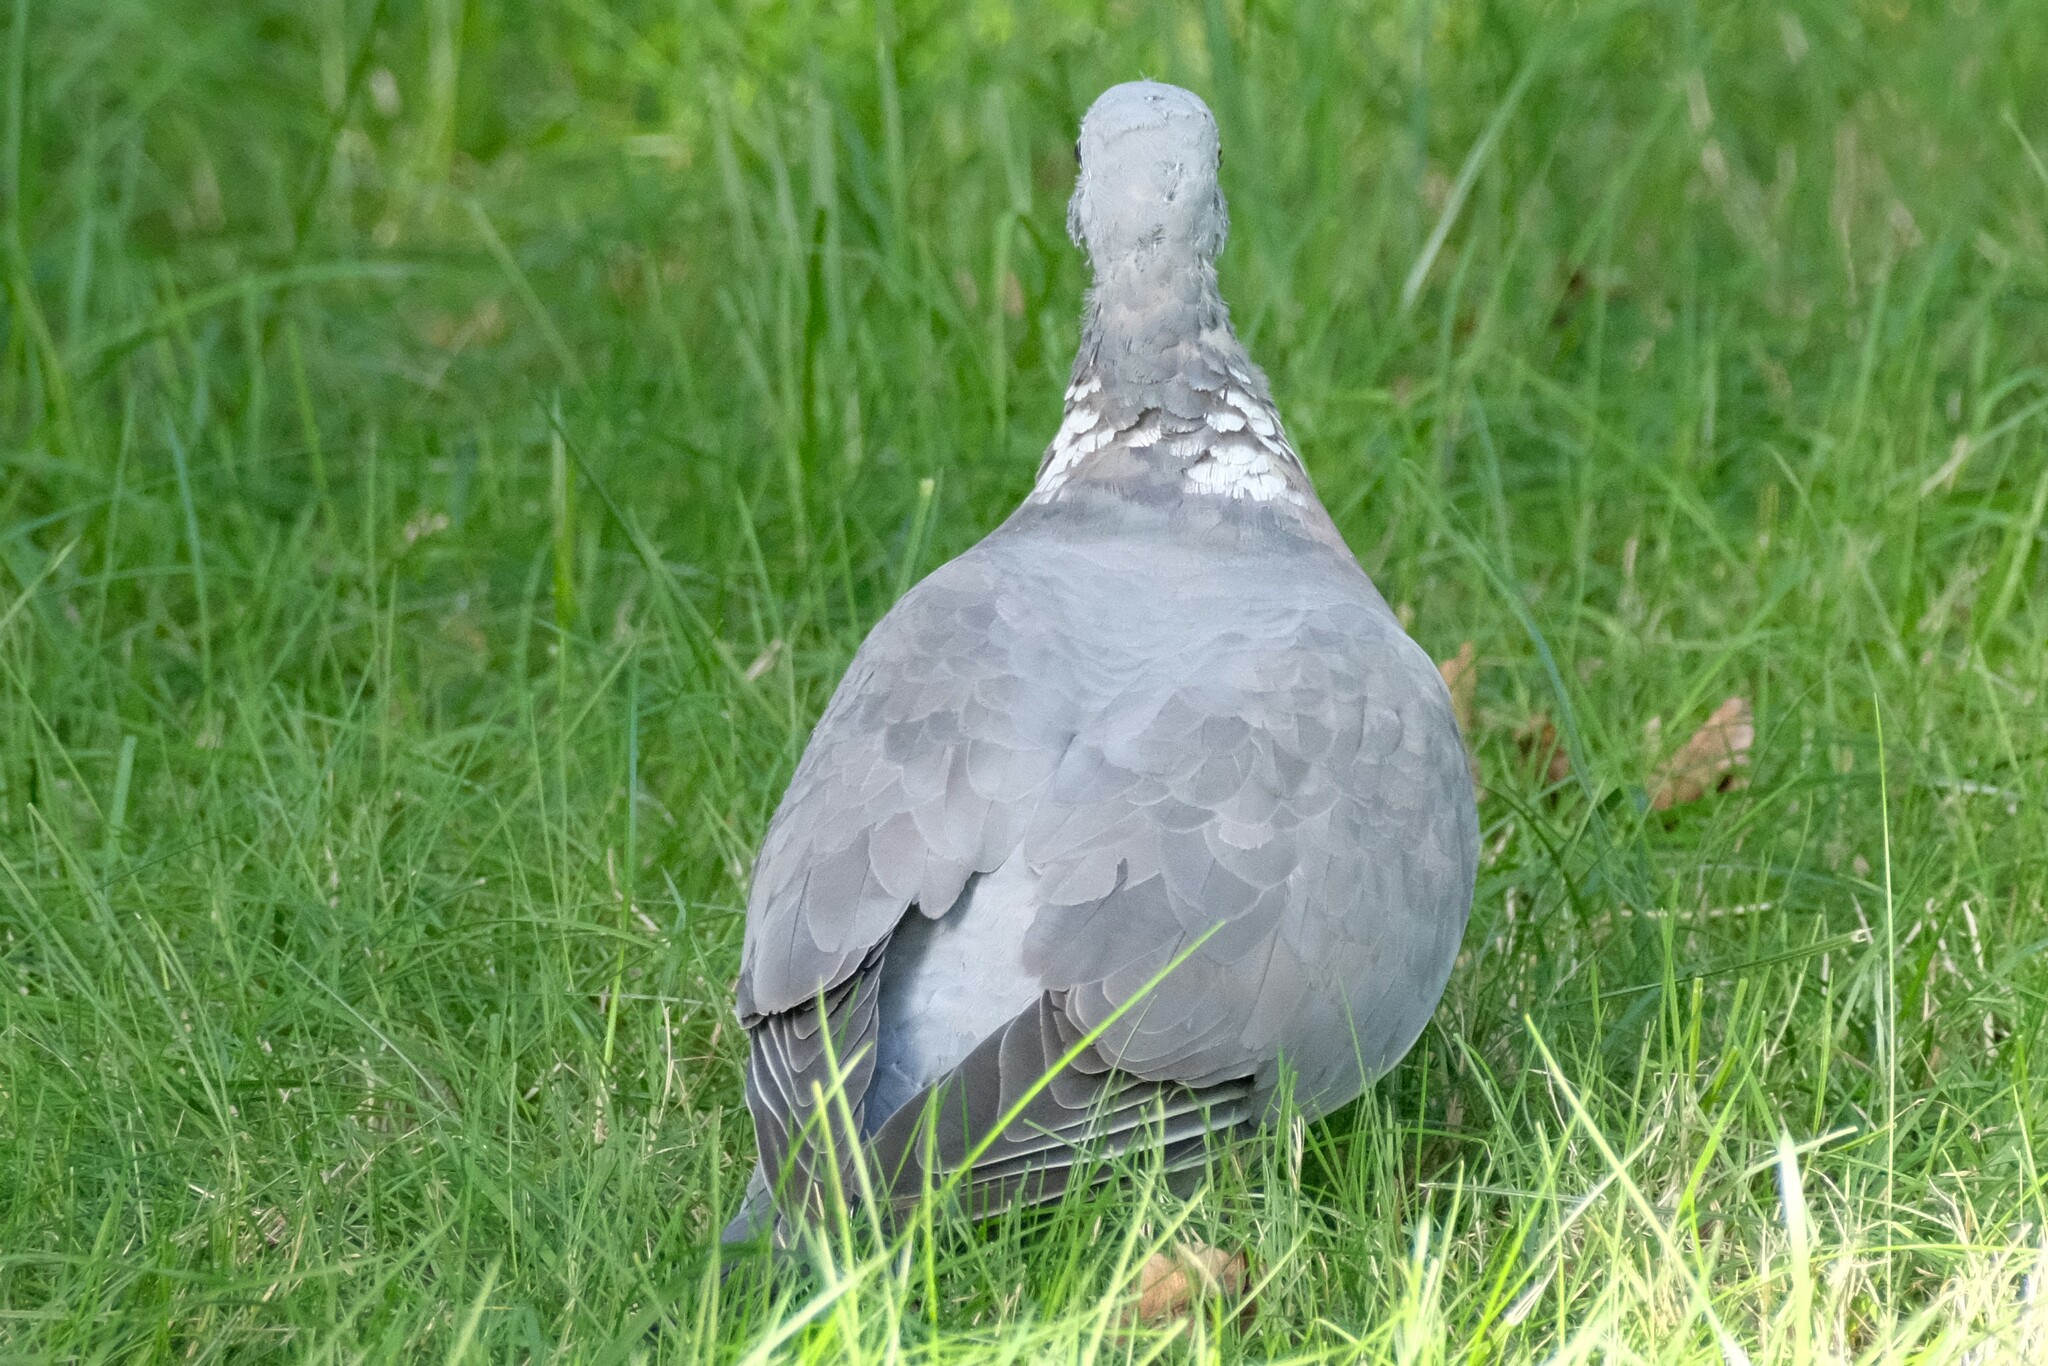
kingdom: Animalia
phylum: Chordata
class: Aves
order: Columbiformes
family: Columbidae
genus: Columba
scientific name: Columba palumbus
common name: Common wood pigeon
